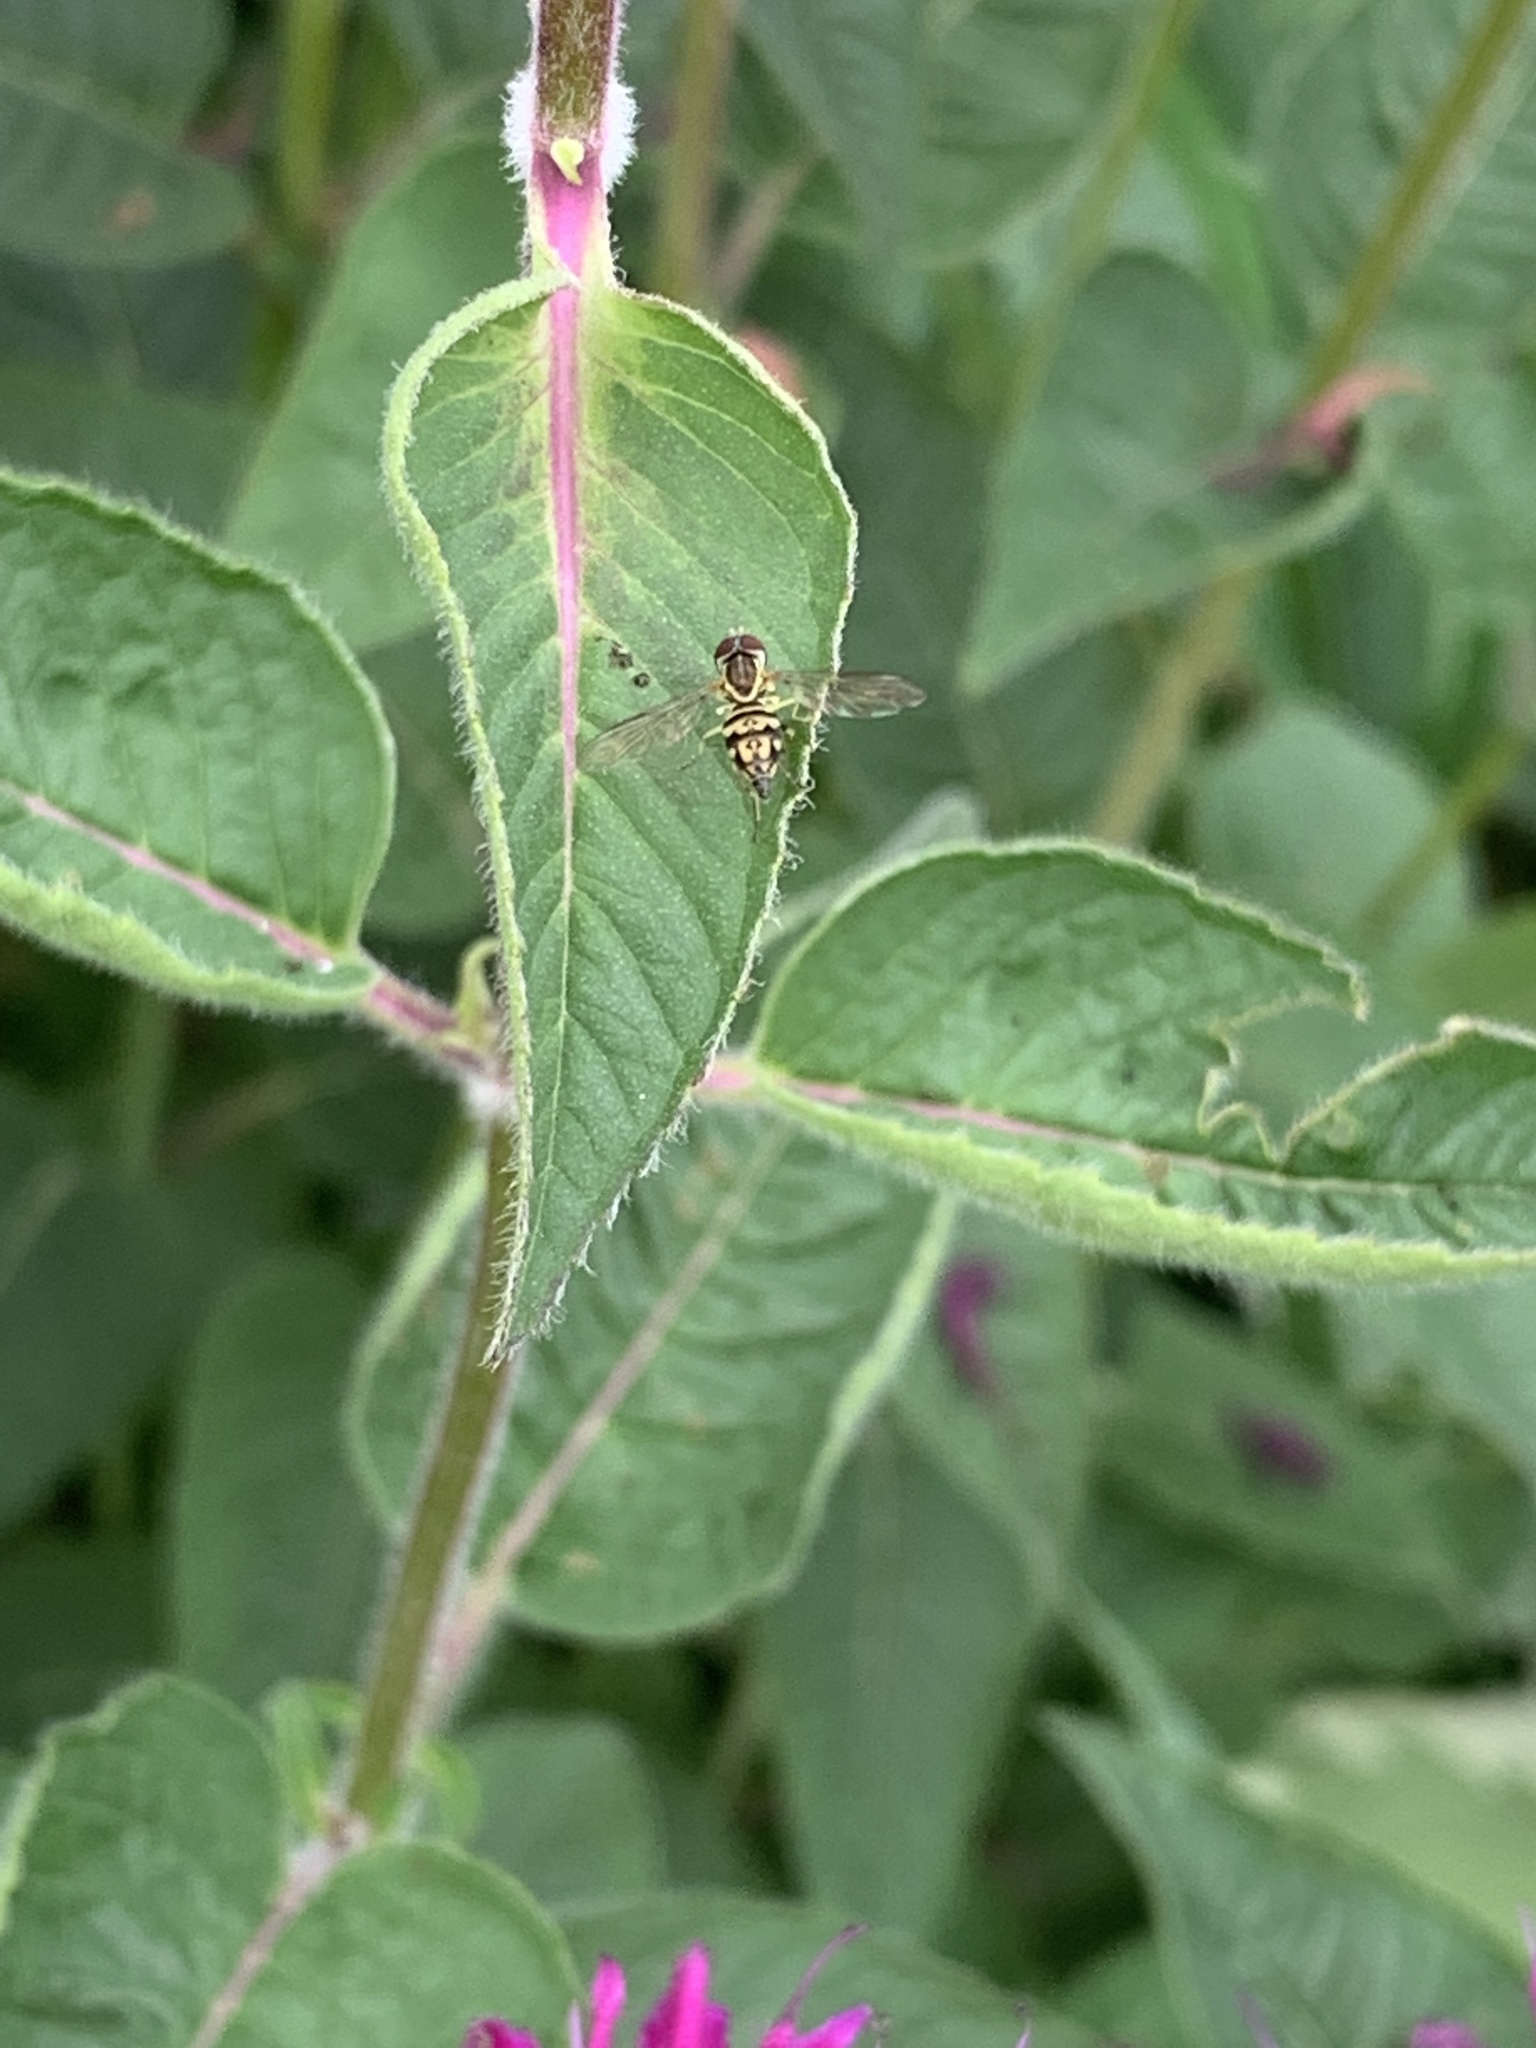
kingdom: Animalia
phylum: Arthropoda
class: Insecta
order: Diptera
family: Syrphidae
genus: Toxomerus
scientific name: Toxomerus geminatus
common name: Eastern calligrapher
